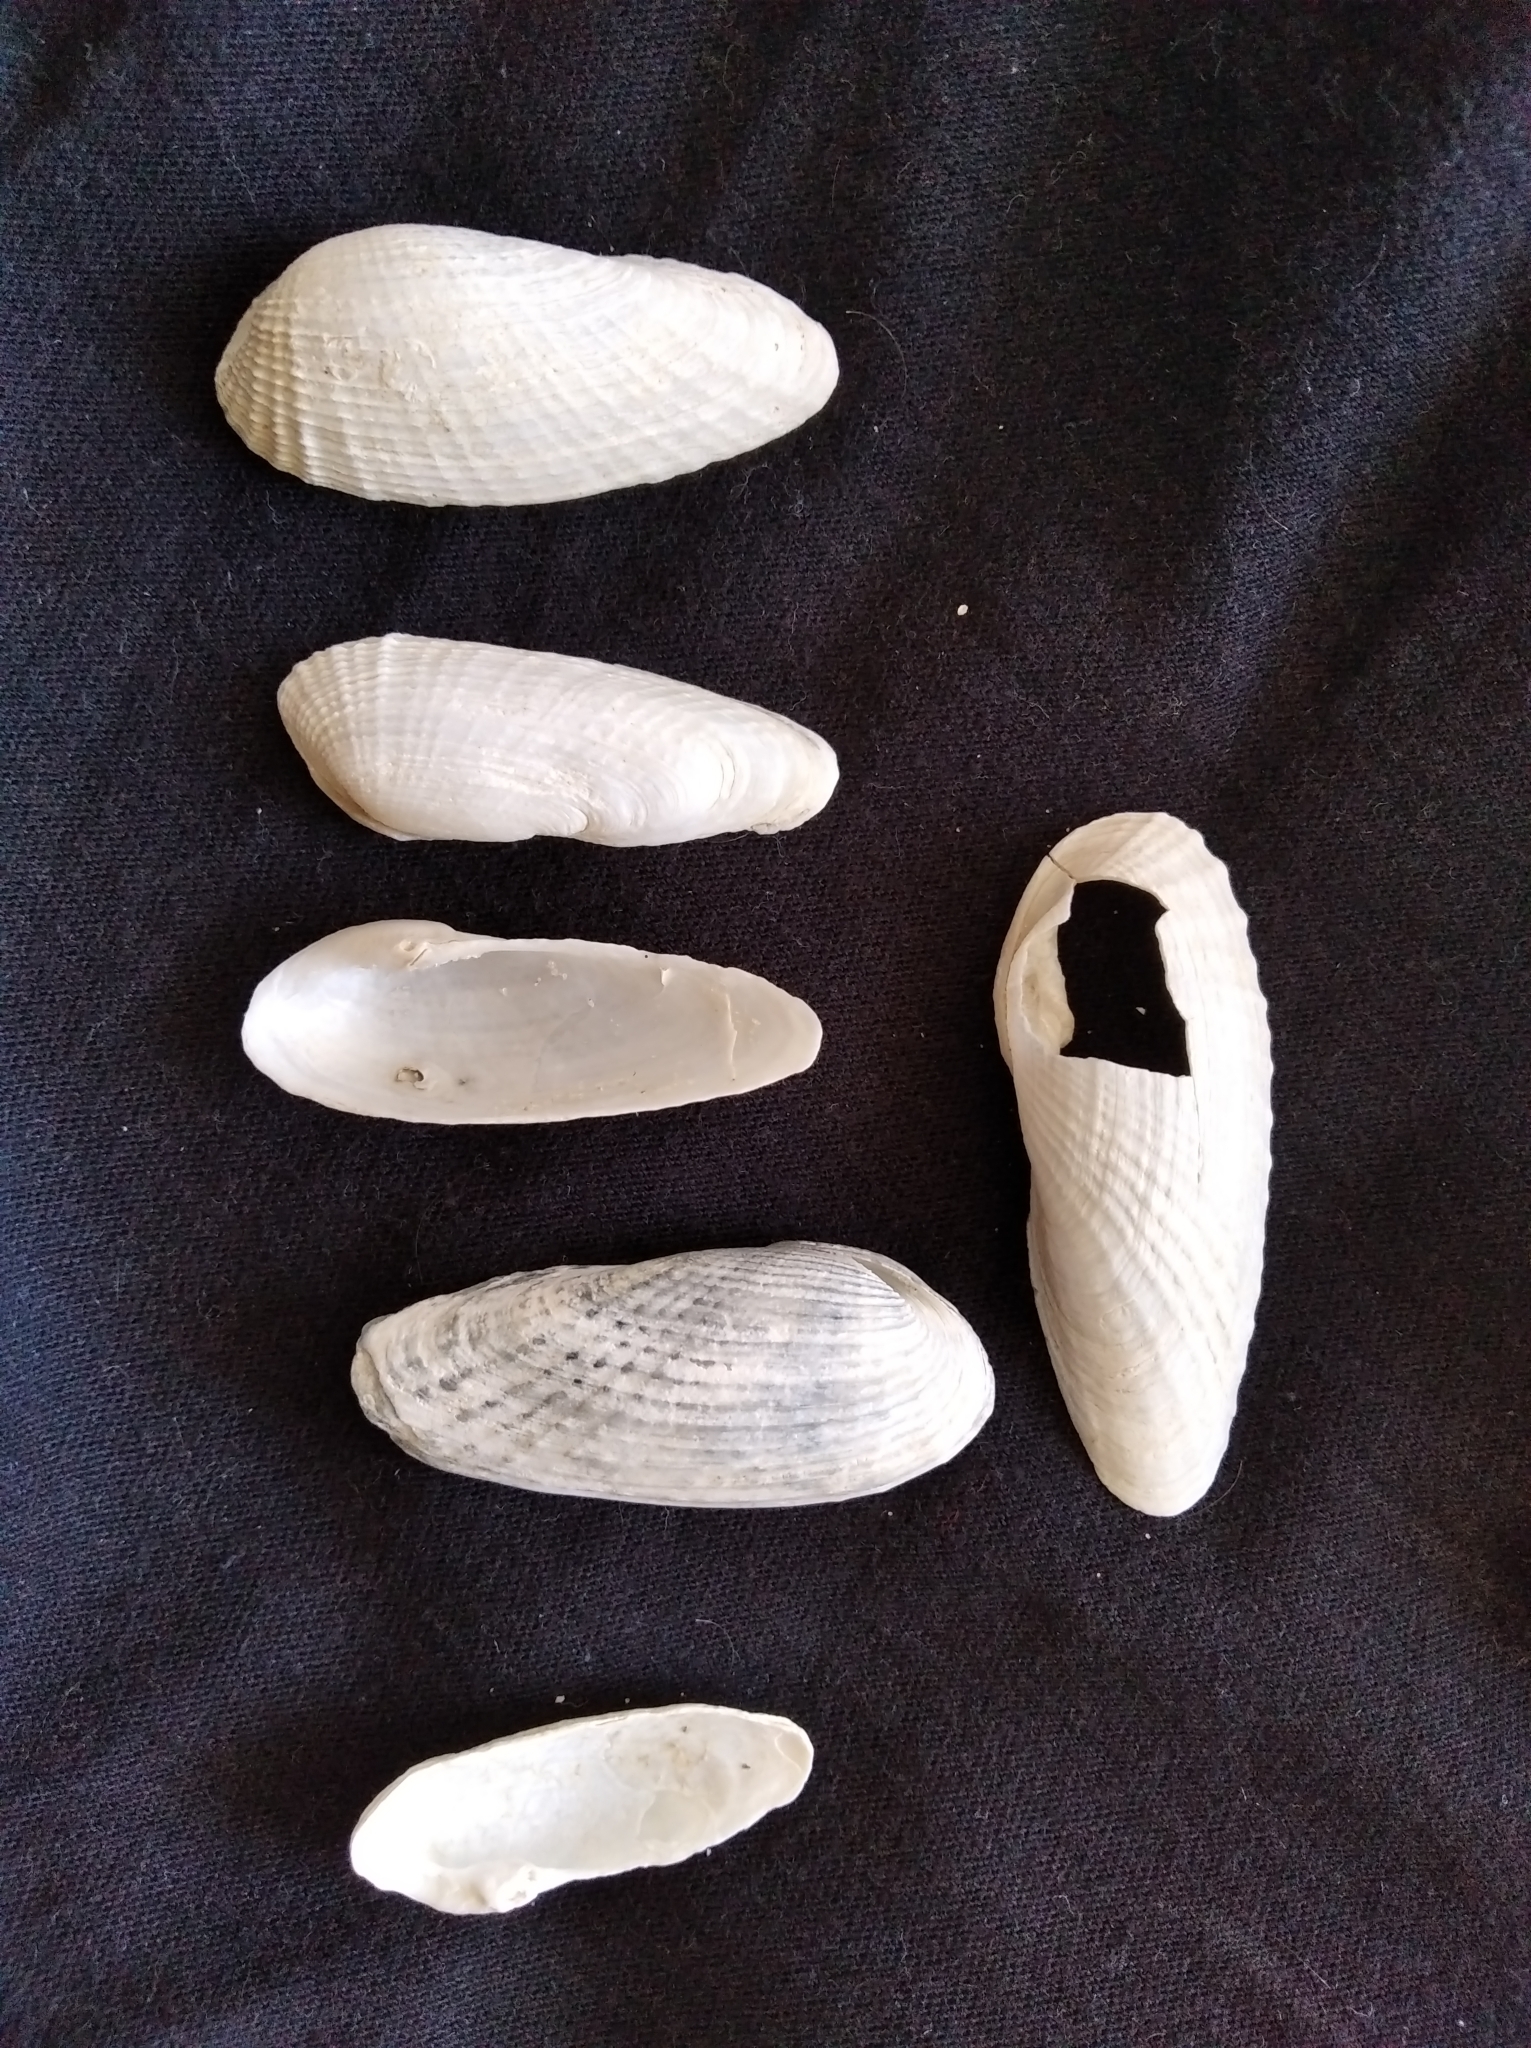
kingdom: Animalia
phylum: Mollusca
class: Bivalvia
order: Myida
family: Pholadidae
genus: Barnea
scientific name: Barnea candida
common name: White piddock
